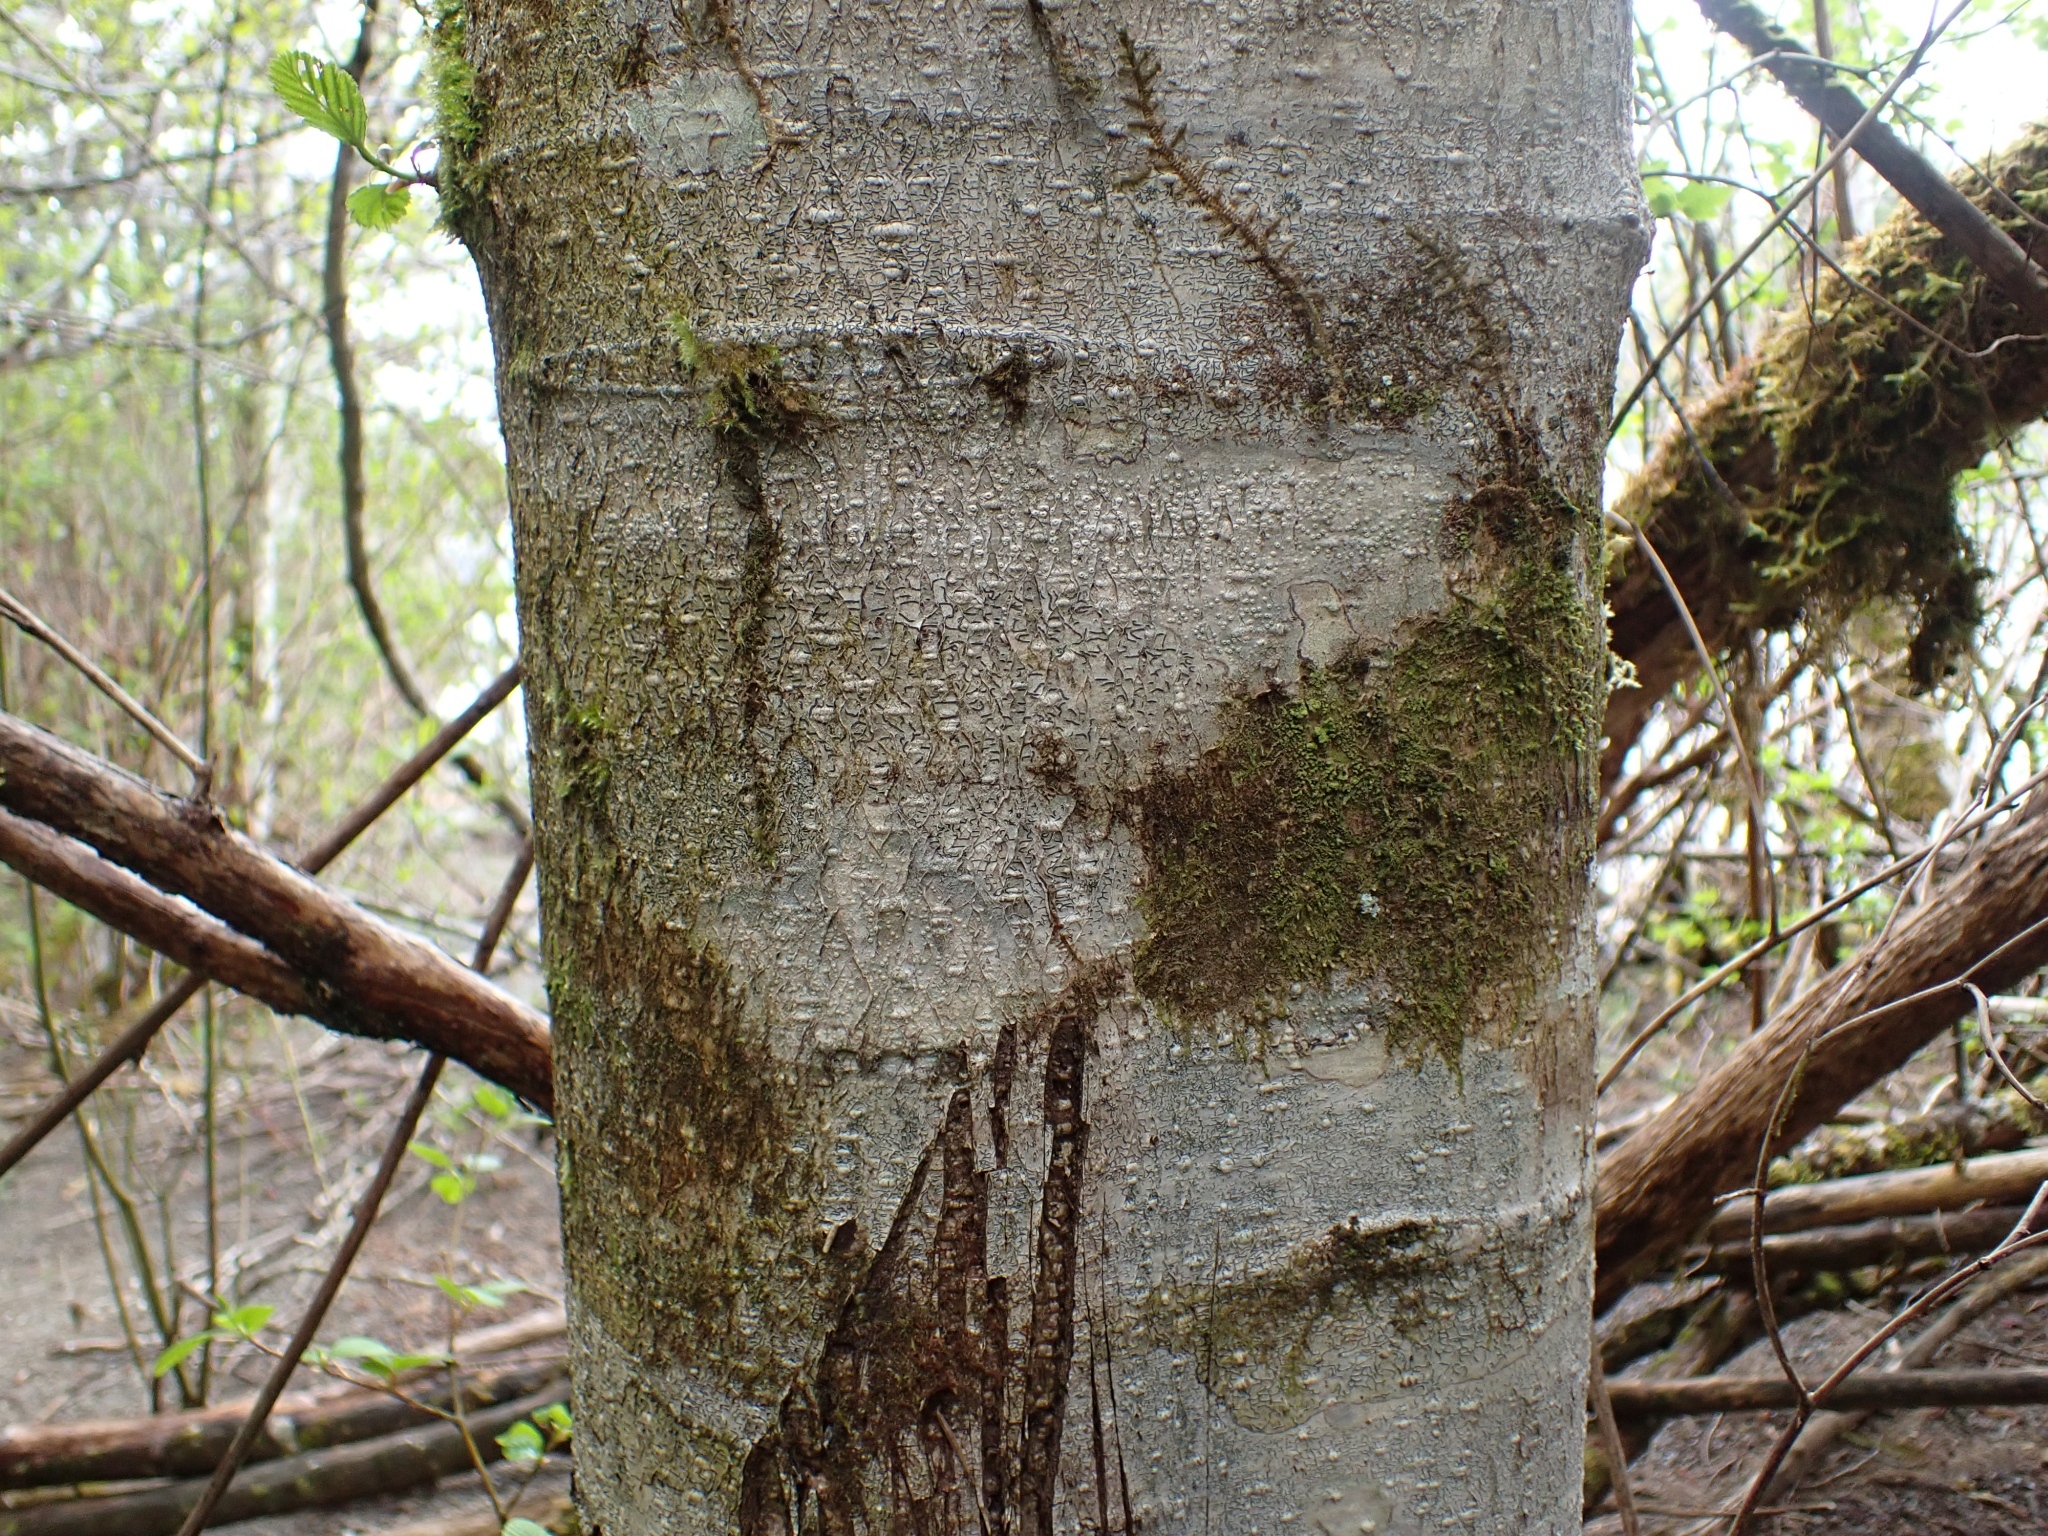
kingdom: Plantae
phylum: Tracheophyta
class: Magnoliopsida
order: Fagales
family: Betulaceae
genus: Alnus
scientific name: Alnus rubra
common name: Red alder
